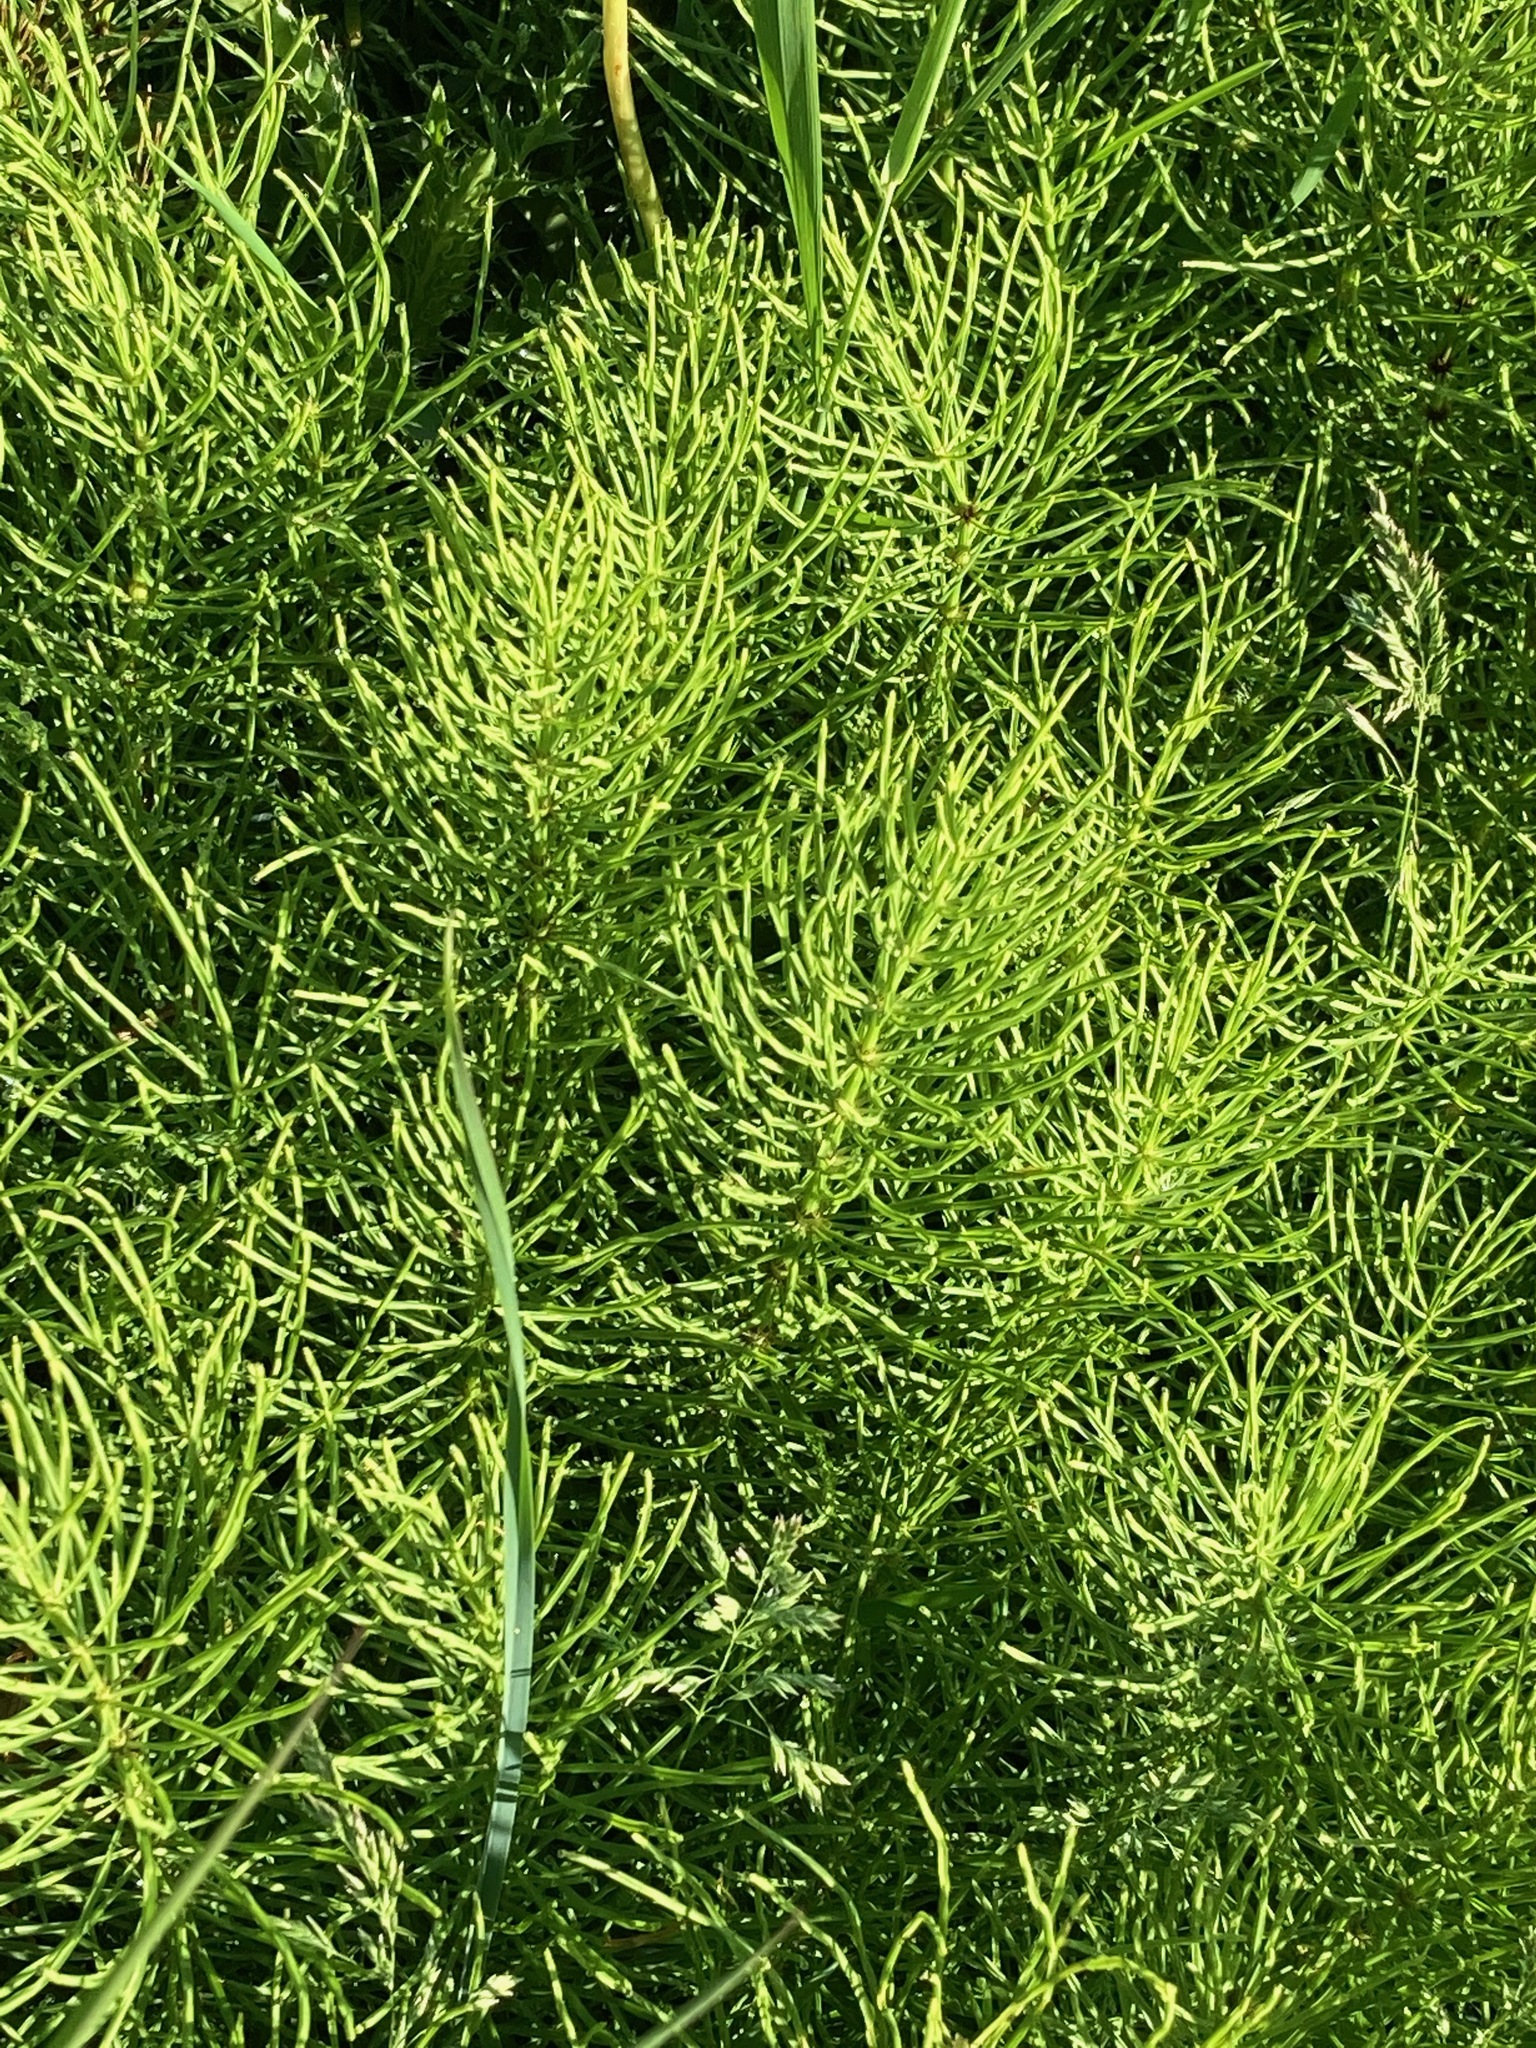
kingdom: Plantae
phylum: Tracheophyta
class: Polypodiopsida
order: Equisetales
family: Equisetaceae
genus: Equisetum
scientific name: Equisetum arvense
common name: Field horsetail
